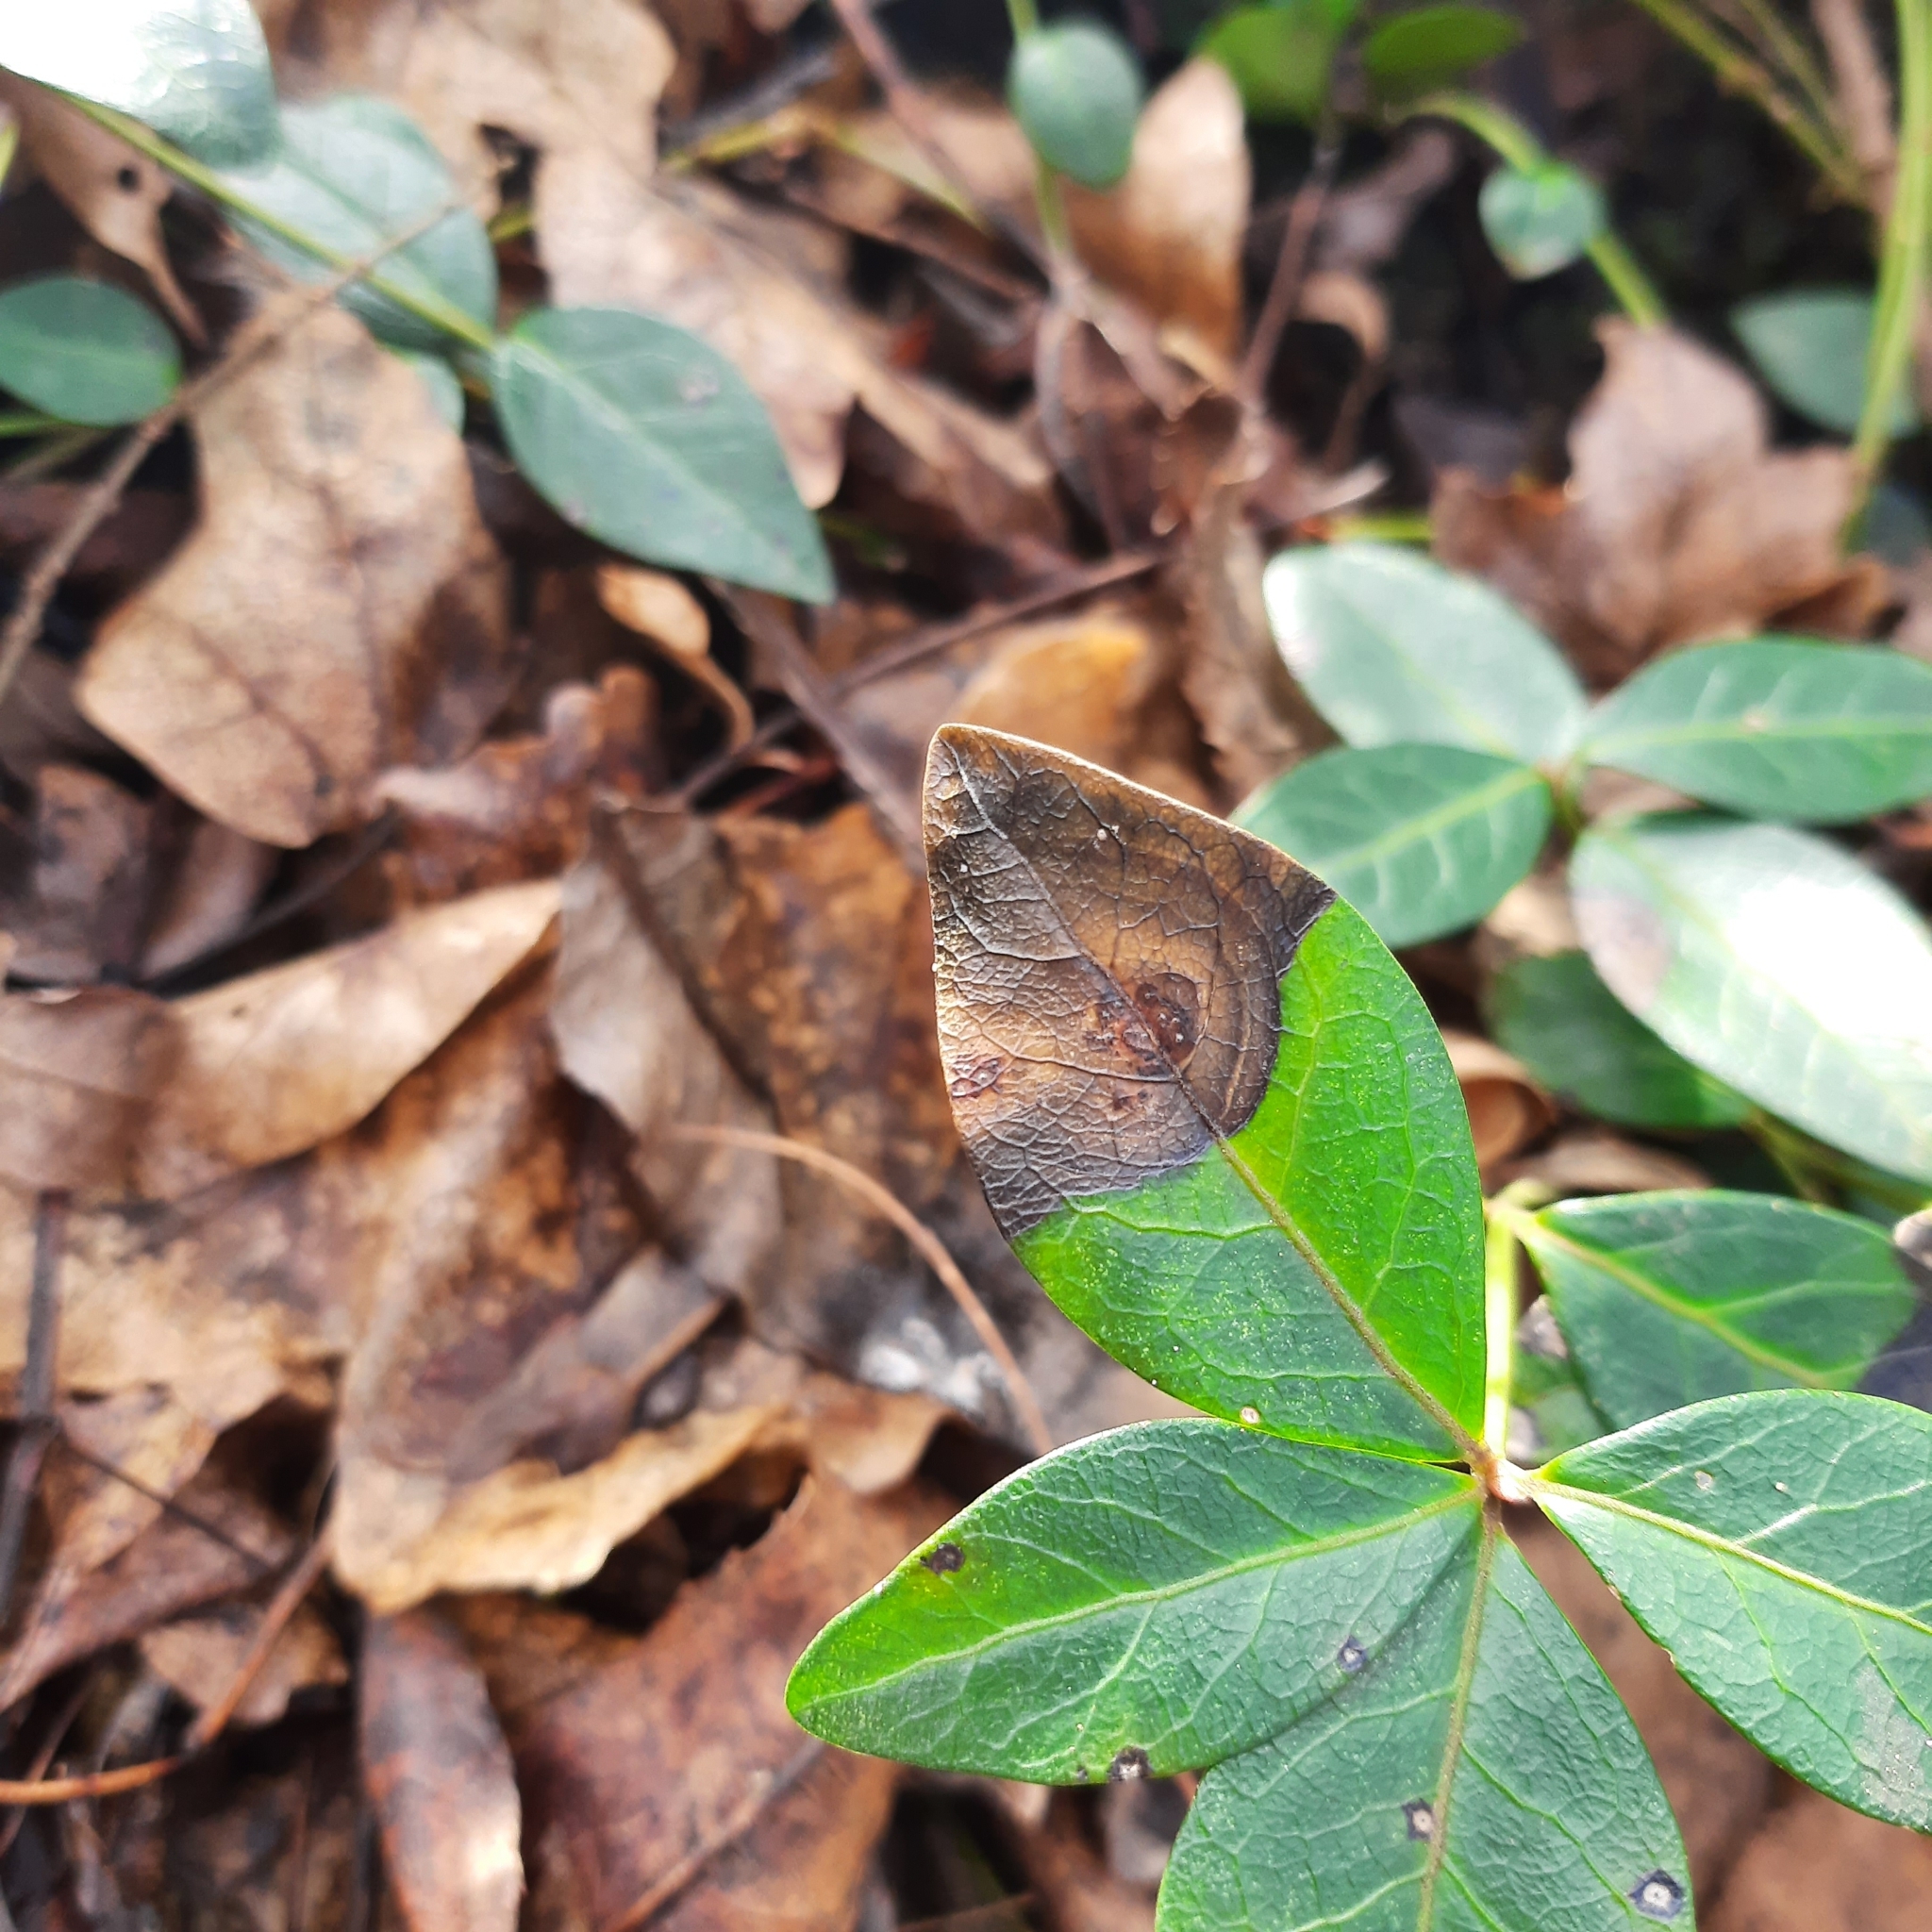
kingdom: Plantae
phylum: Tracheophyta
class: Magnoliopsida
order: Gentianales
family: Apocynaceae
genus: Vinca
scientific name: Vinca minor
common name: Lesser periwinkle
